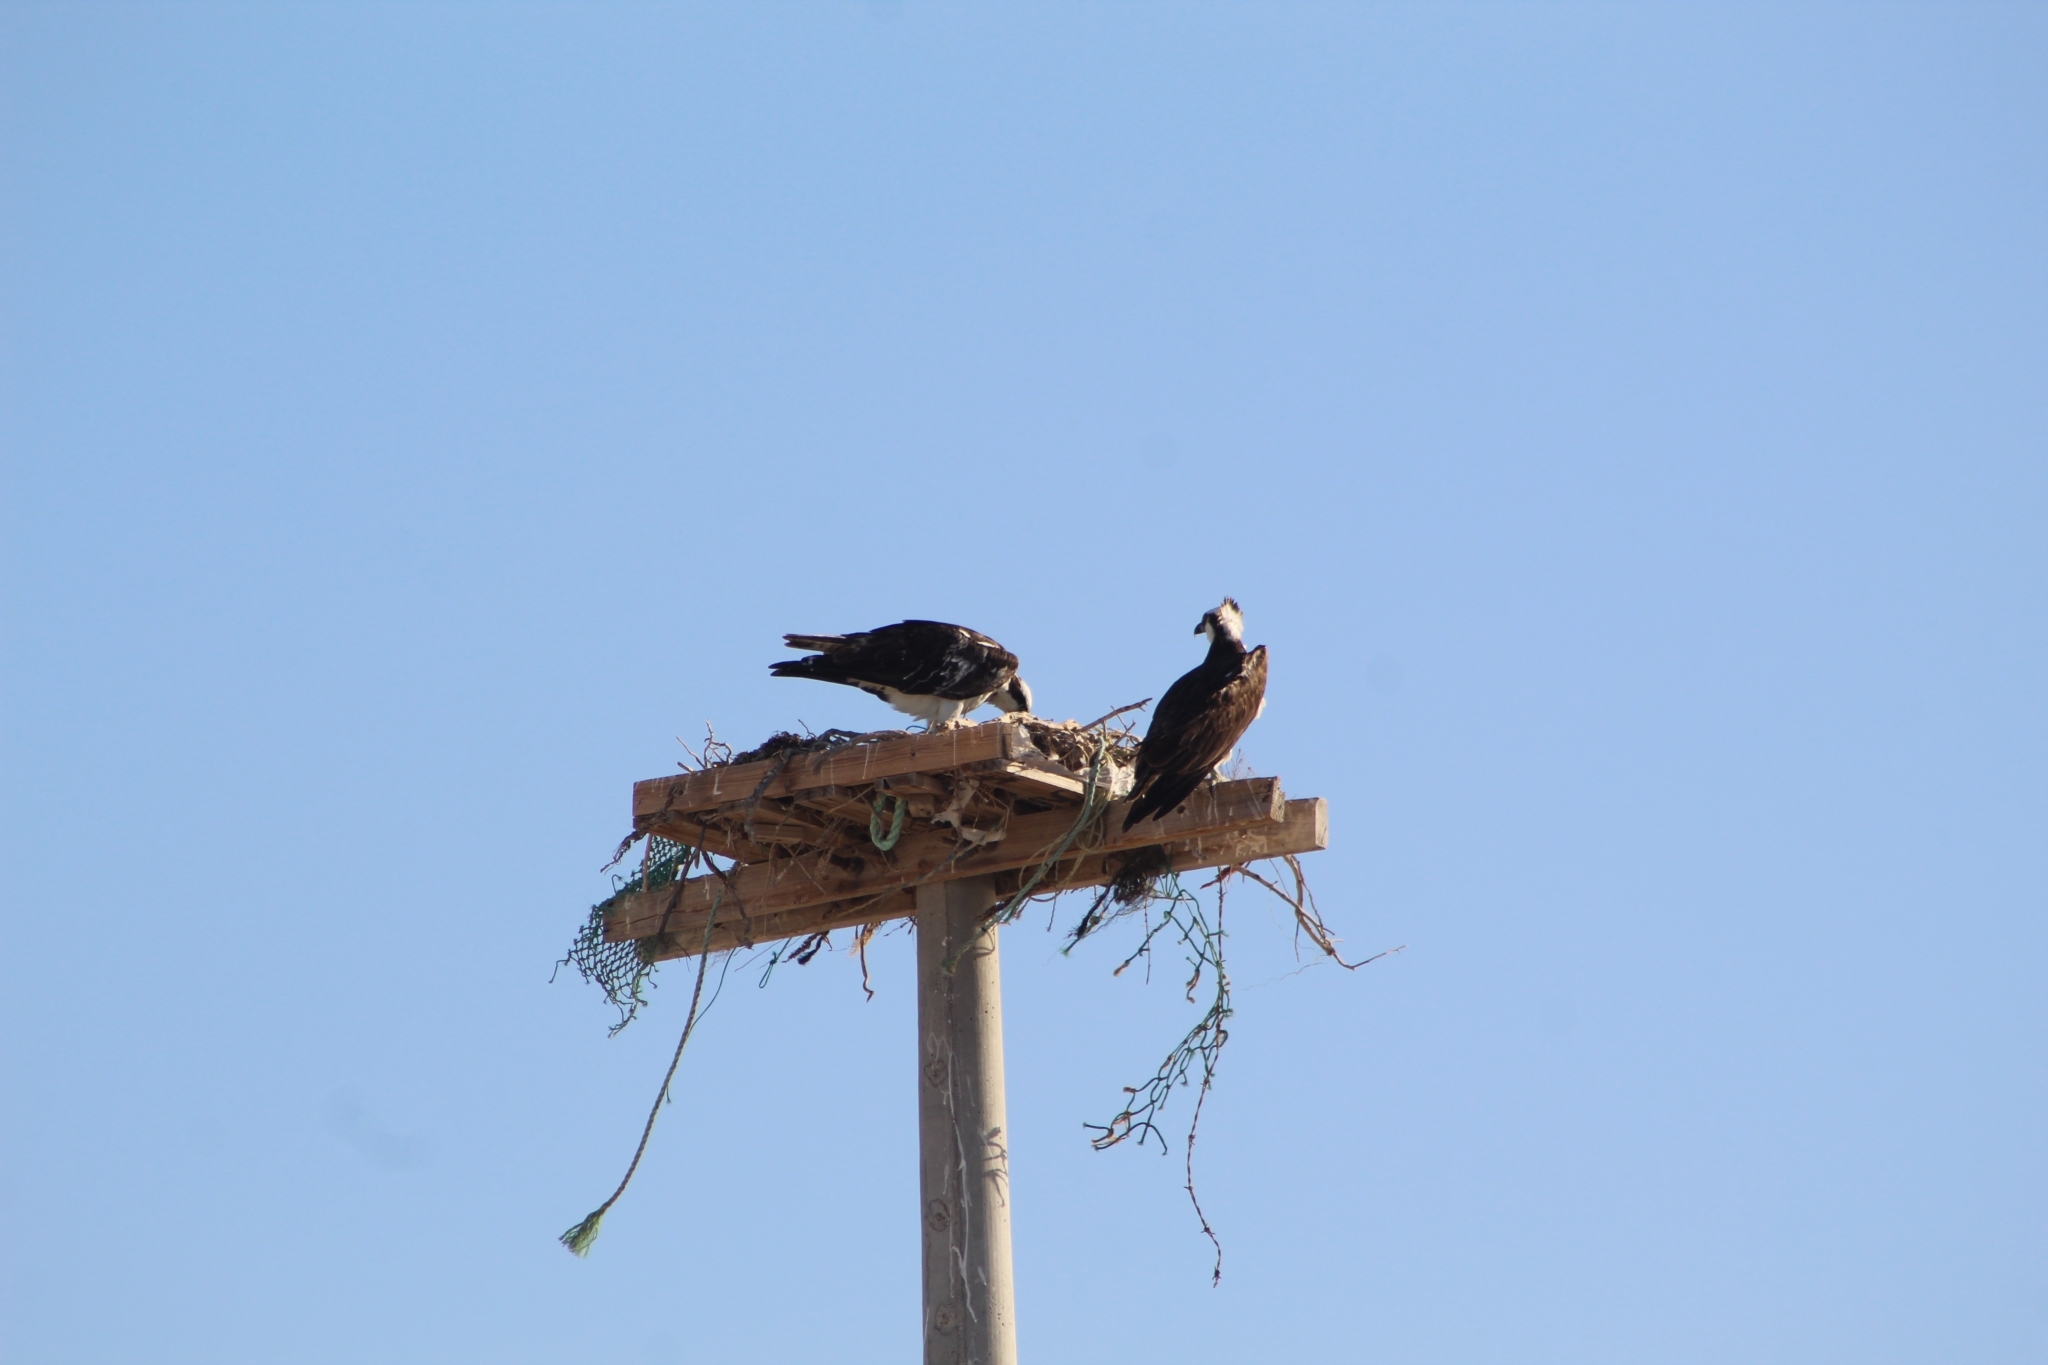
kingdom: Animalia
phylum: Chordata
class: Aves
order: Accipitriformes
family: Pandionidae
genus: Pandion
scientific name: Pandion haliaetus
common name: Osprey
